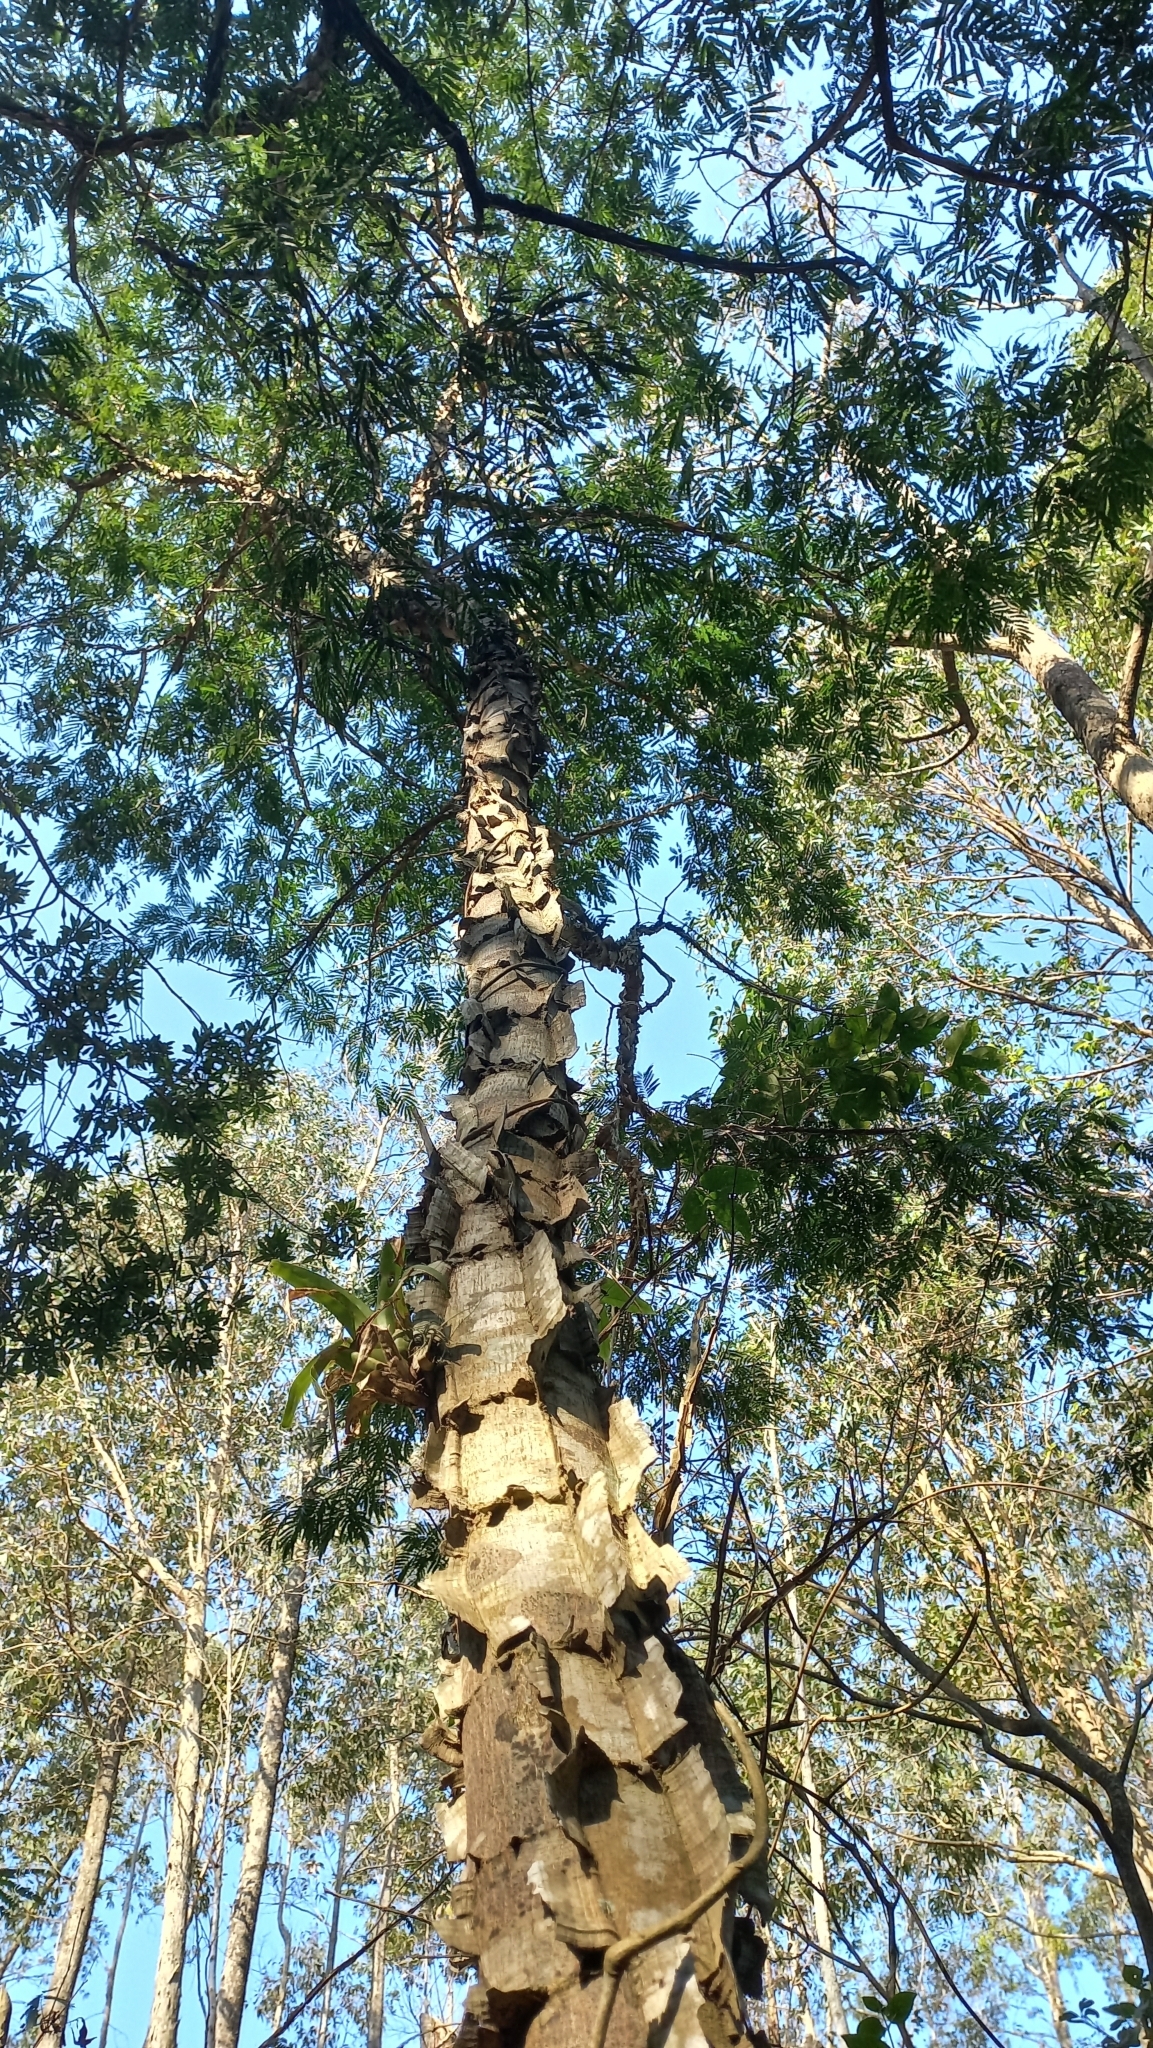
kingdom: Plantae
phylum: Tracheophyta
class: Magnoliopsida
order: Fabales
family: Fabaceae
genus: Piptadenia
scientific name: Piptadenia gonoacantha
